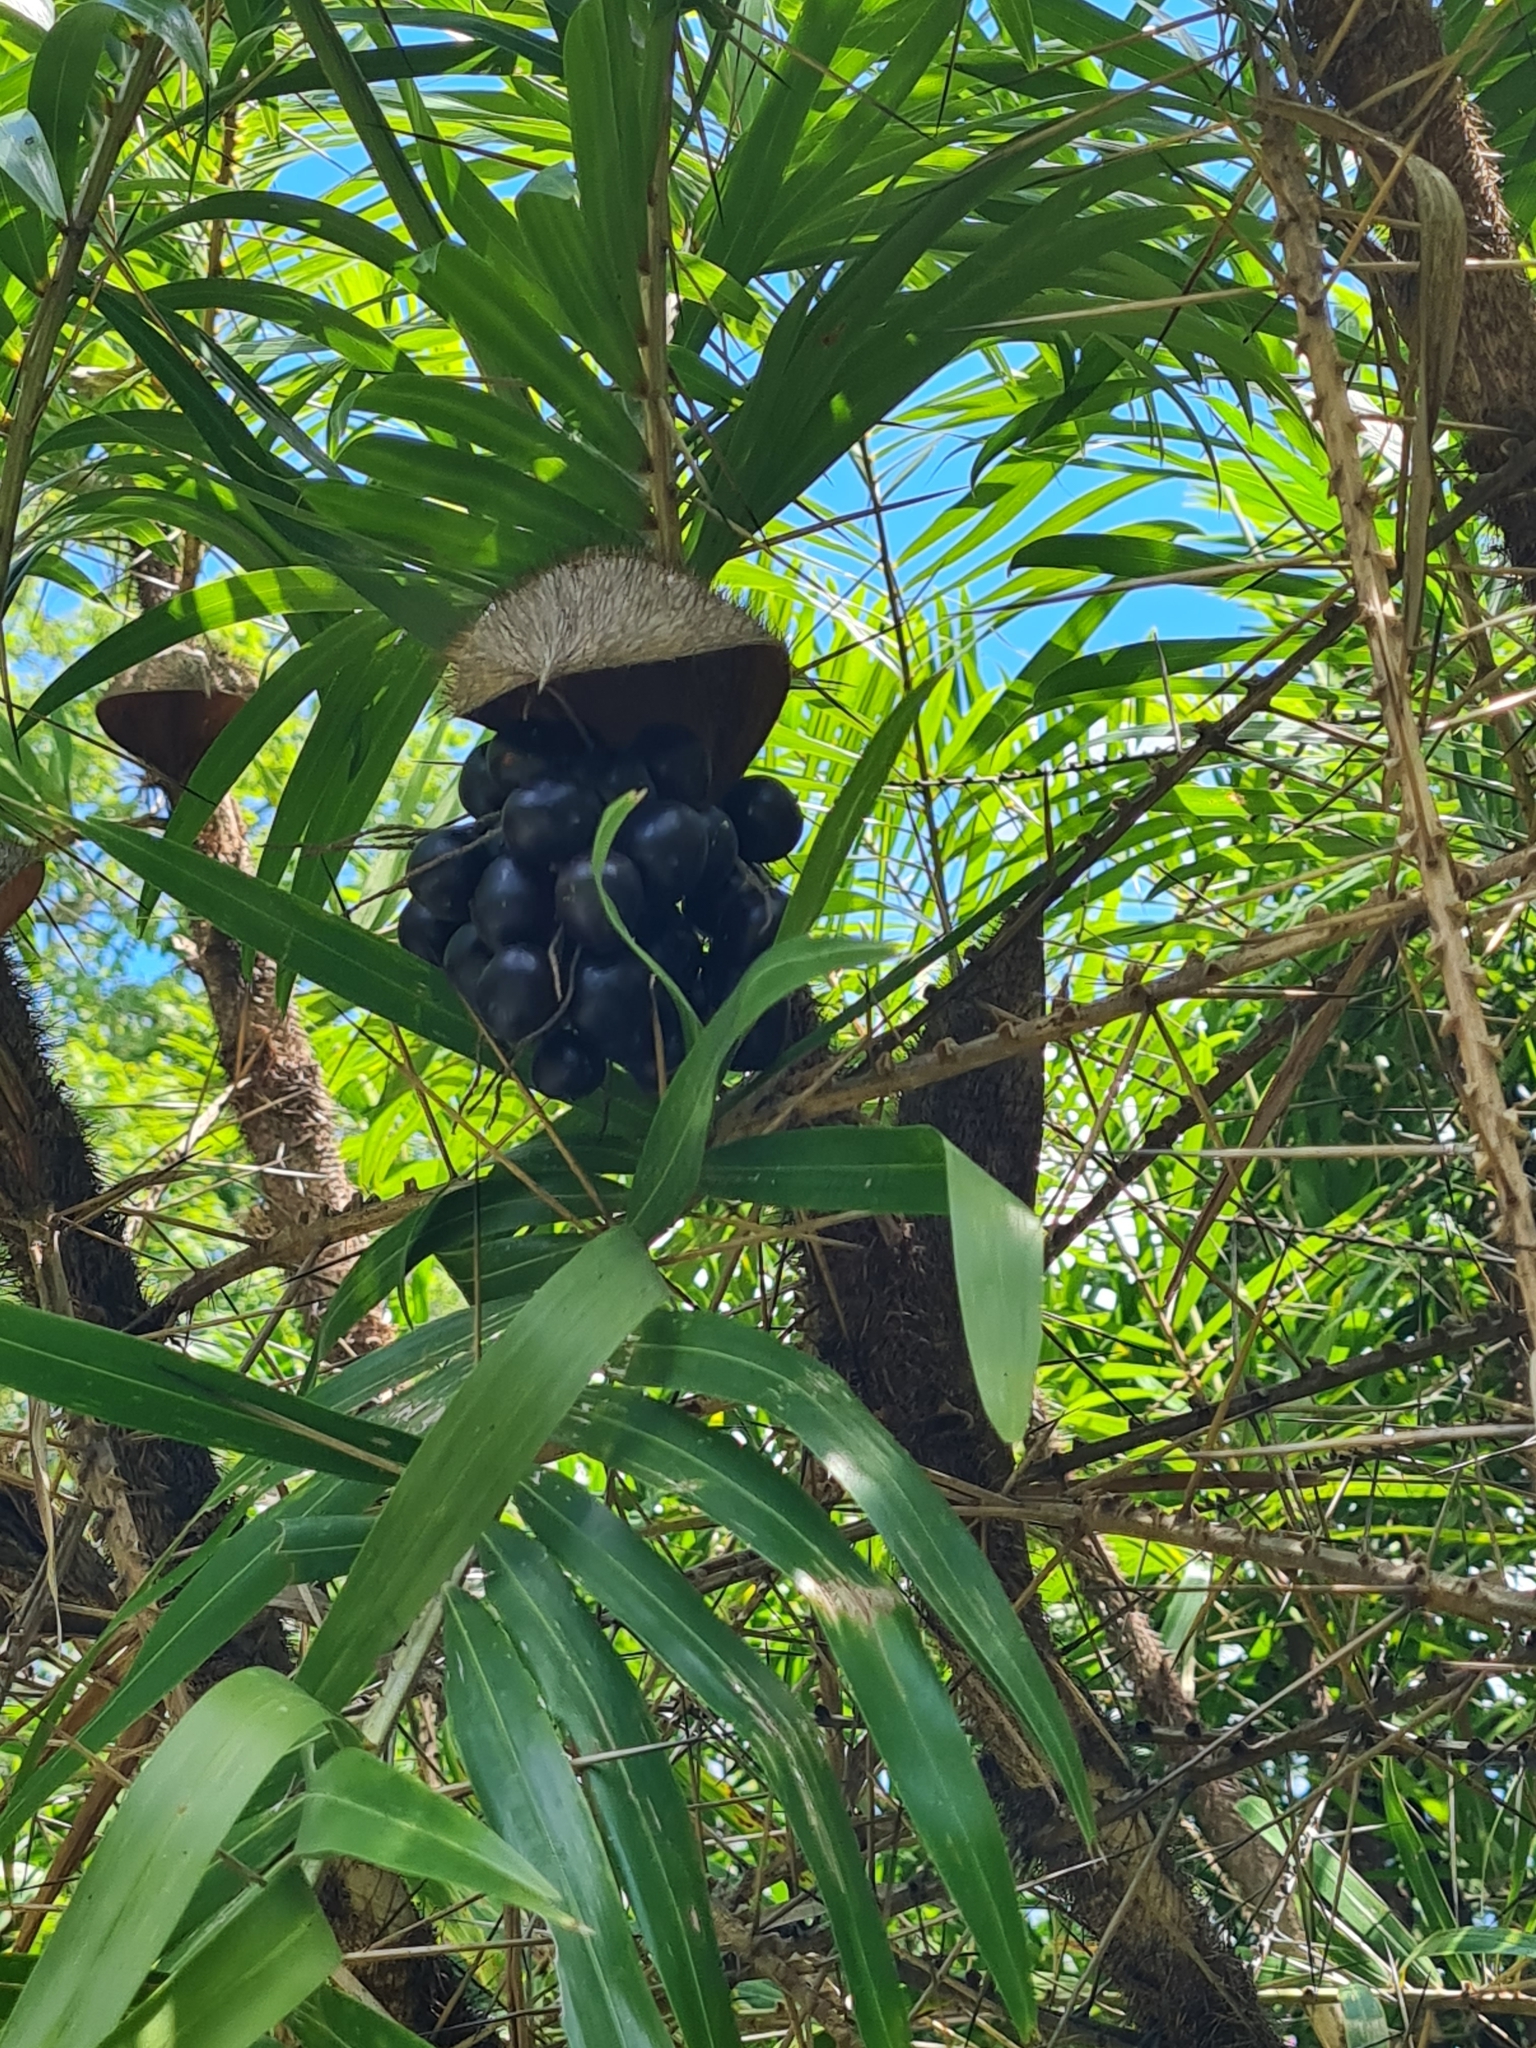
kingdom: Plantae
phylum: Tracheophyta
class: Liliopsida
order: Arecales
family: Arecaceae
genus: Bactris
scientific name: Bactris guineensis
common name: Tobago cane
